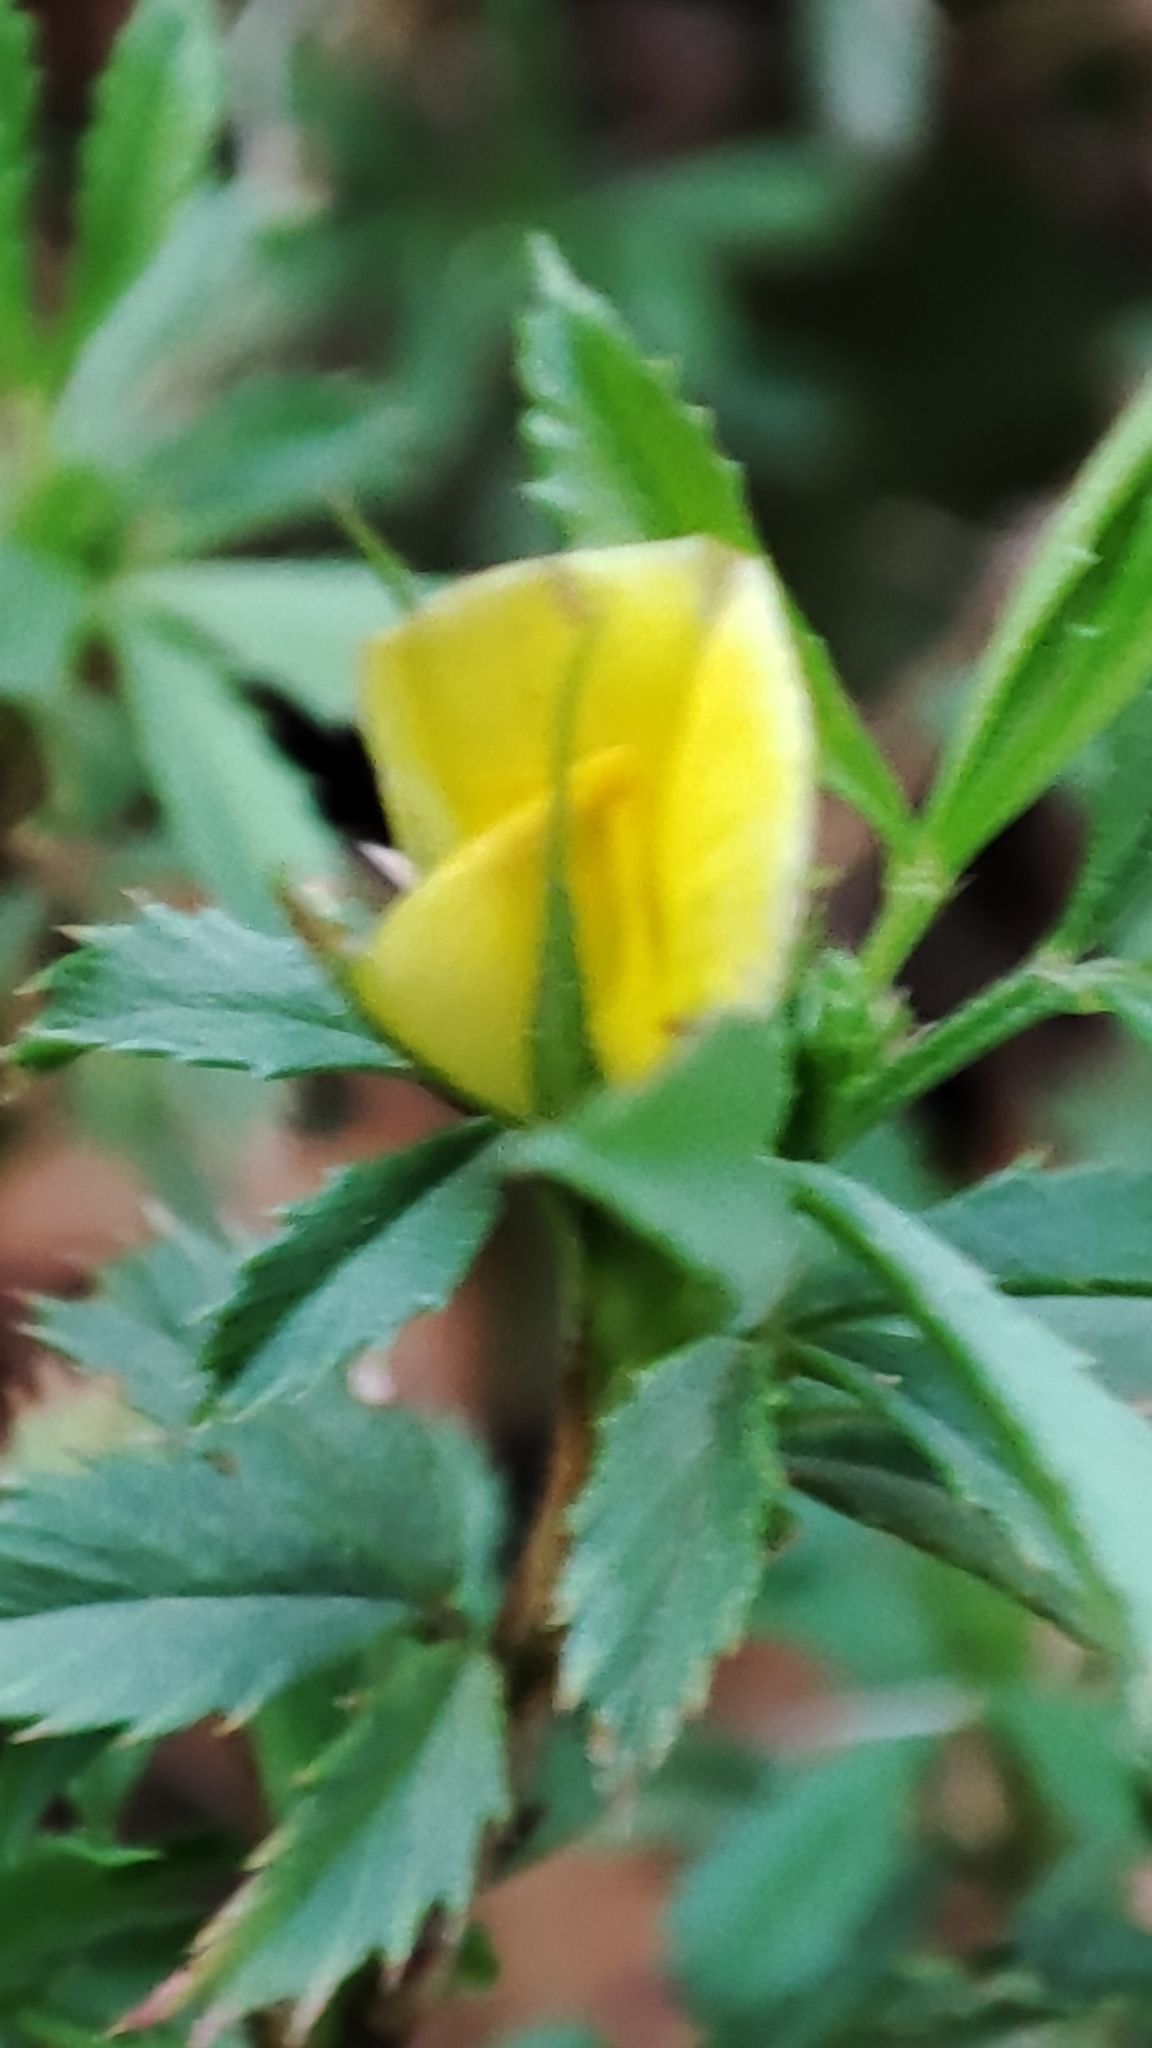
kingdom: Plantae
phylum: Tracheophyta
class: Magnoliopsida
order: Fabales
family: Fabaceae
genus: Ononis
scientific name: Ononis minutissima
